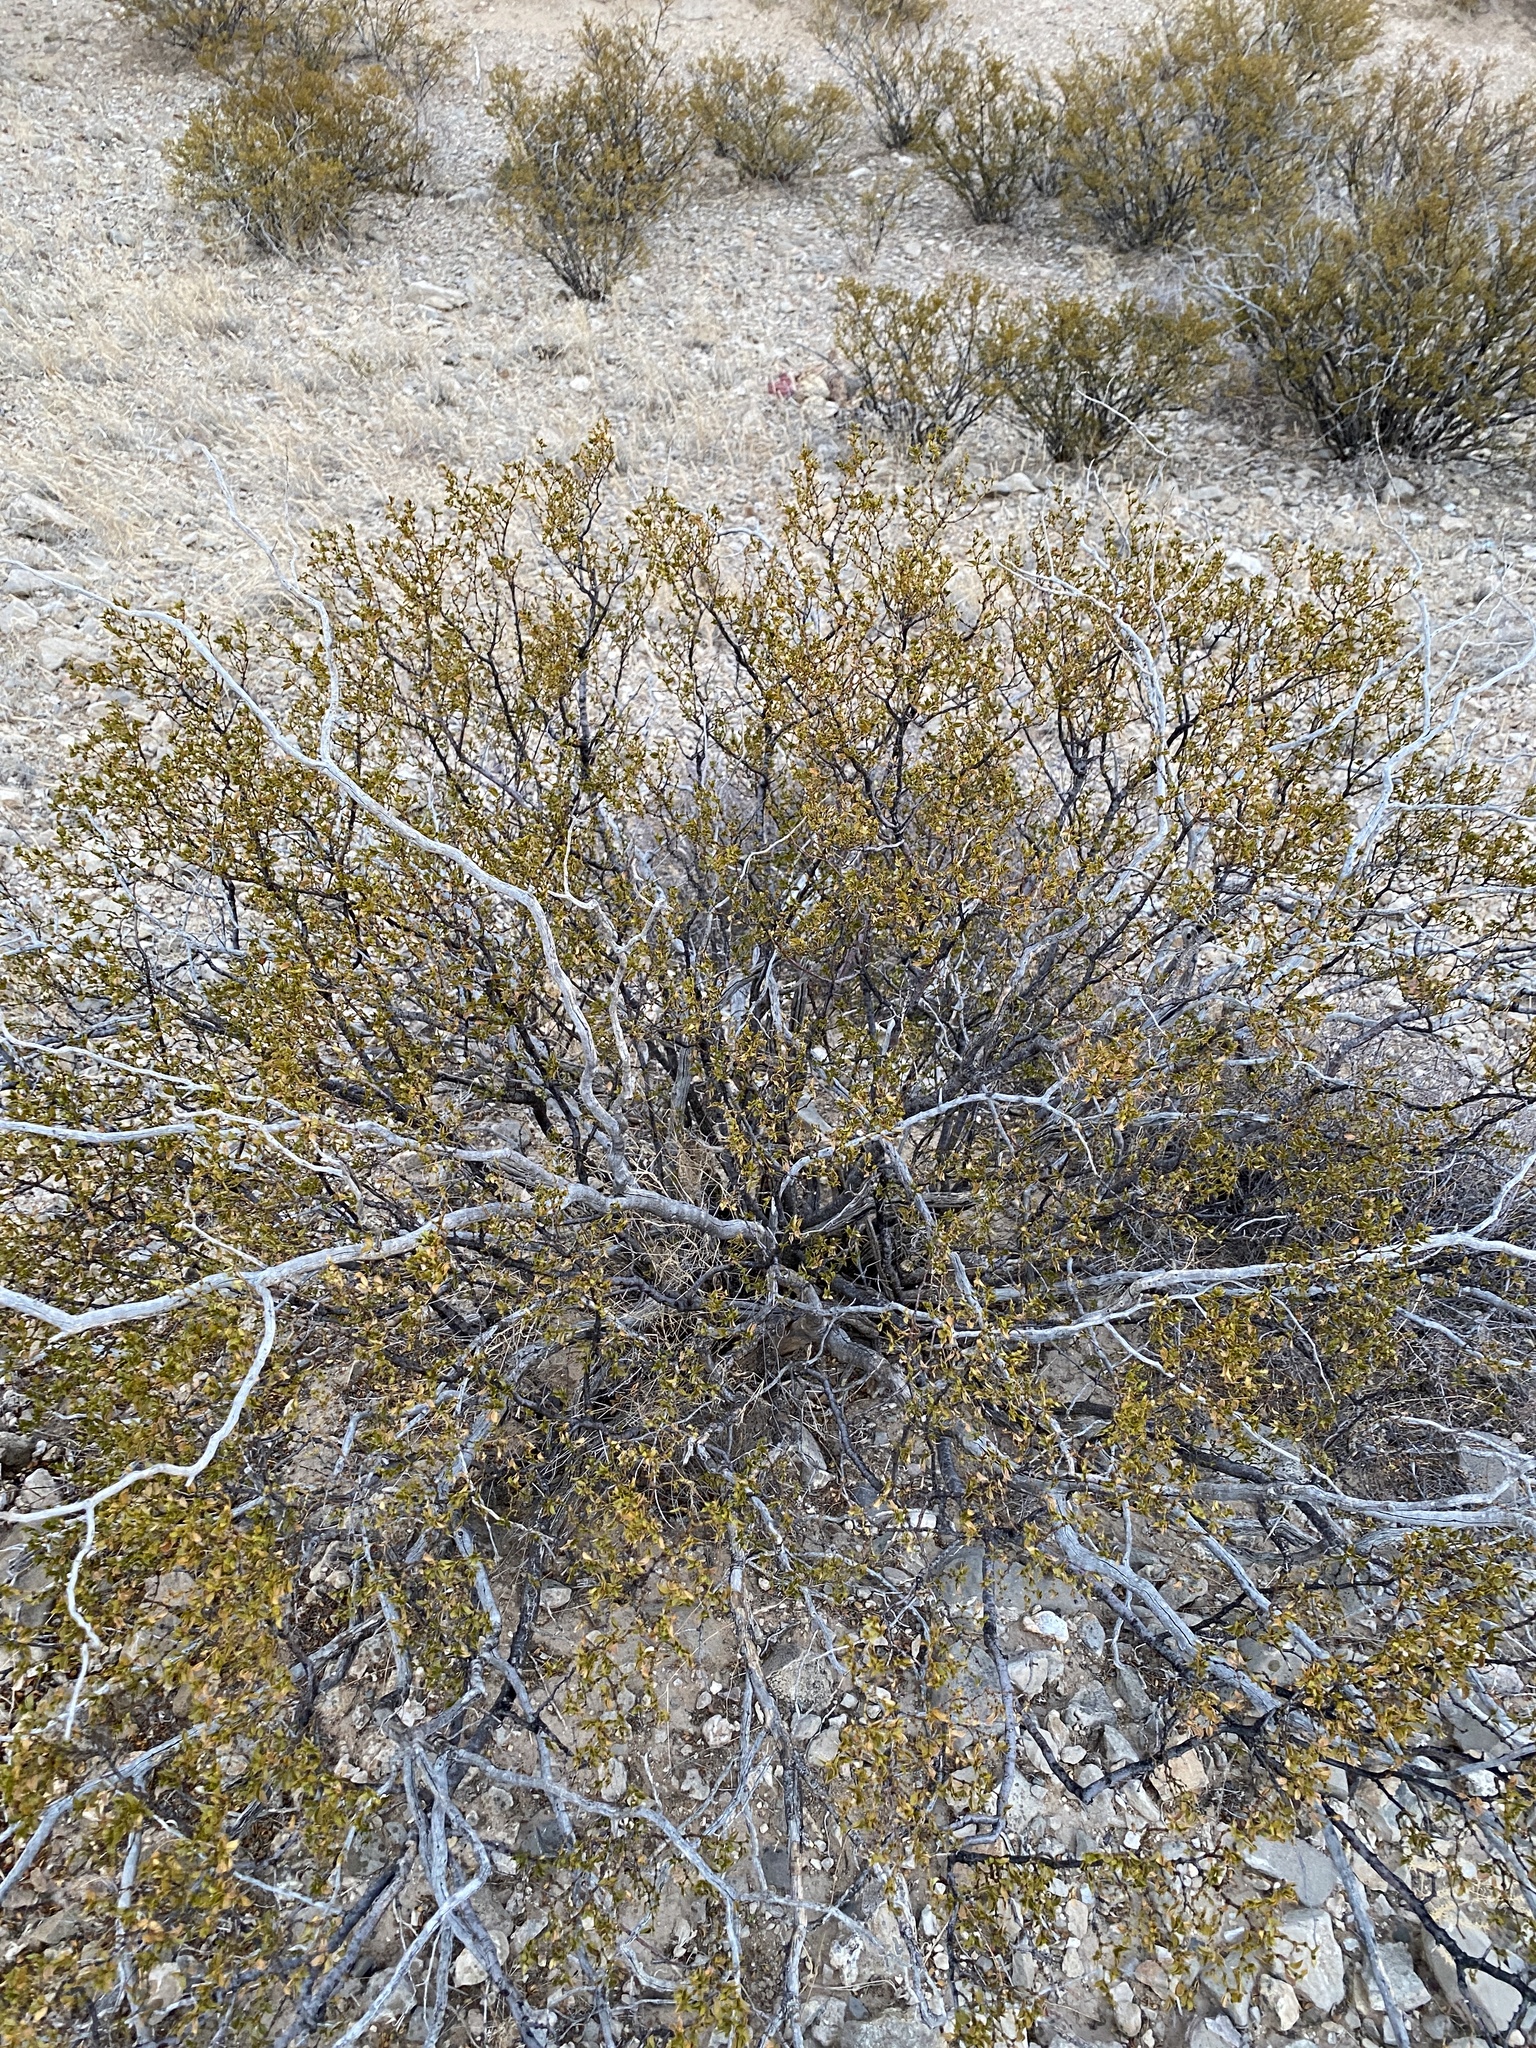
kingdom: Plantae
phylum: Tracheophyta
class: Magnoliopsida
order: Zygophyllales
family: Zygophyllaceae
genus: Larrea
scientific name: Larrea tridentata
